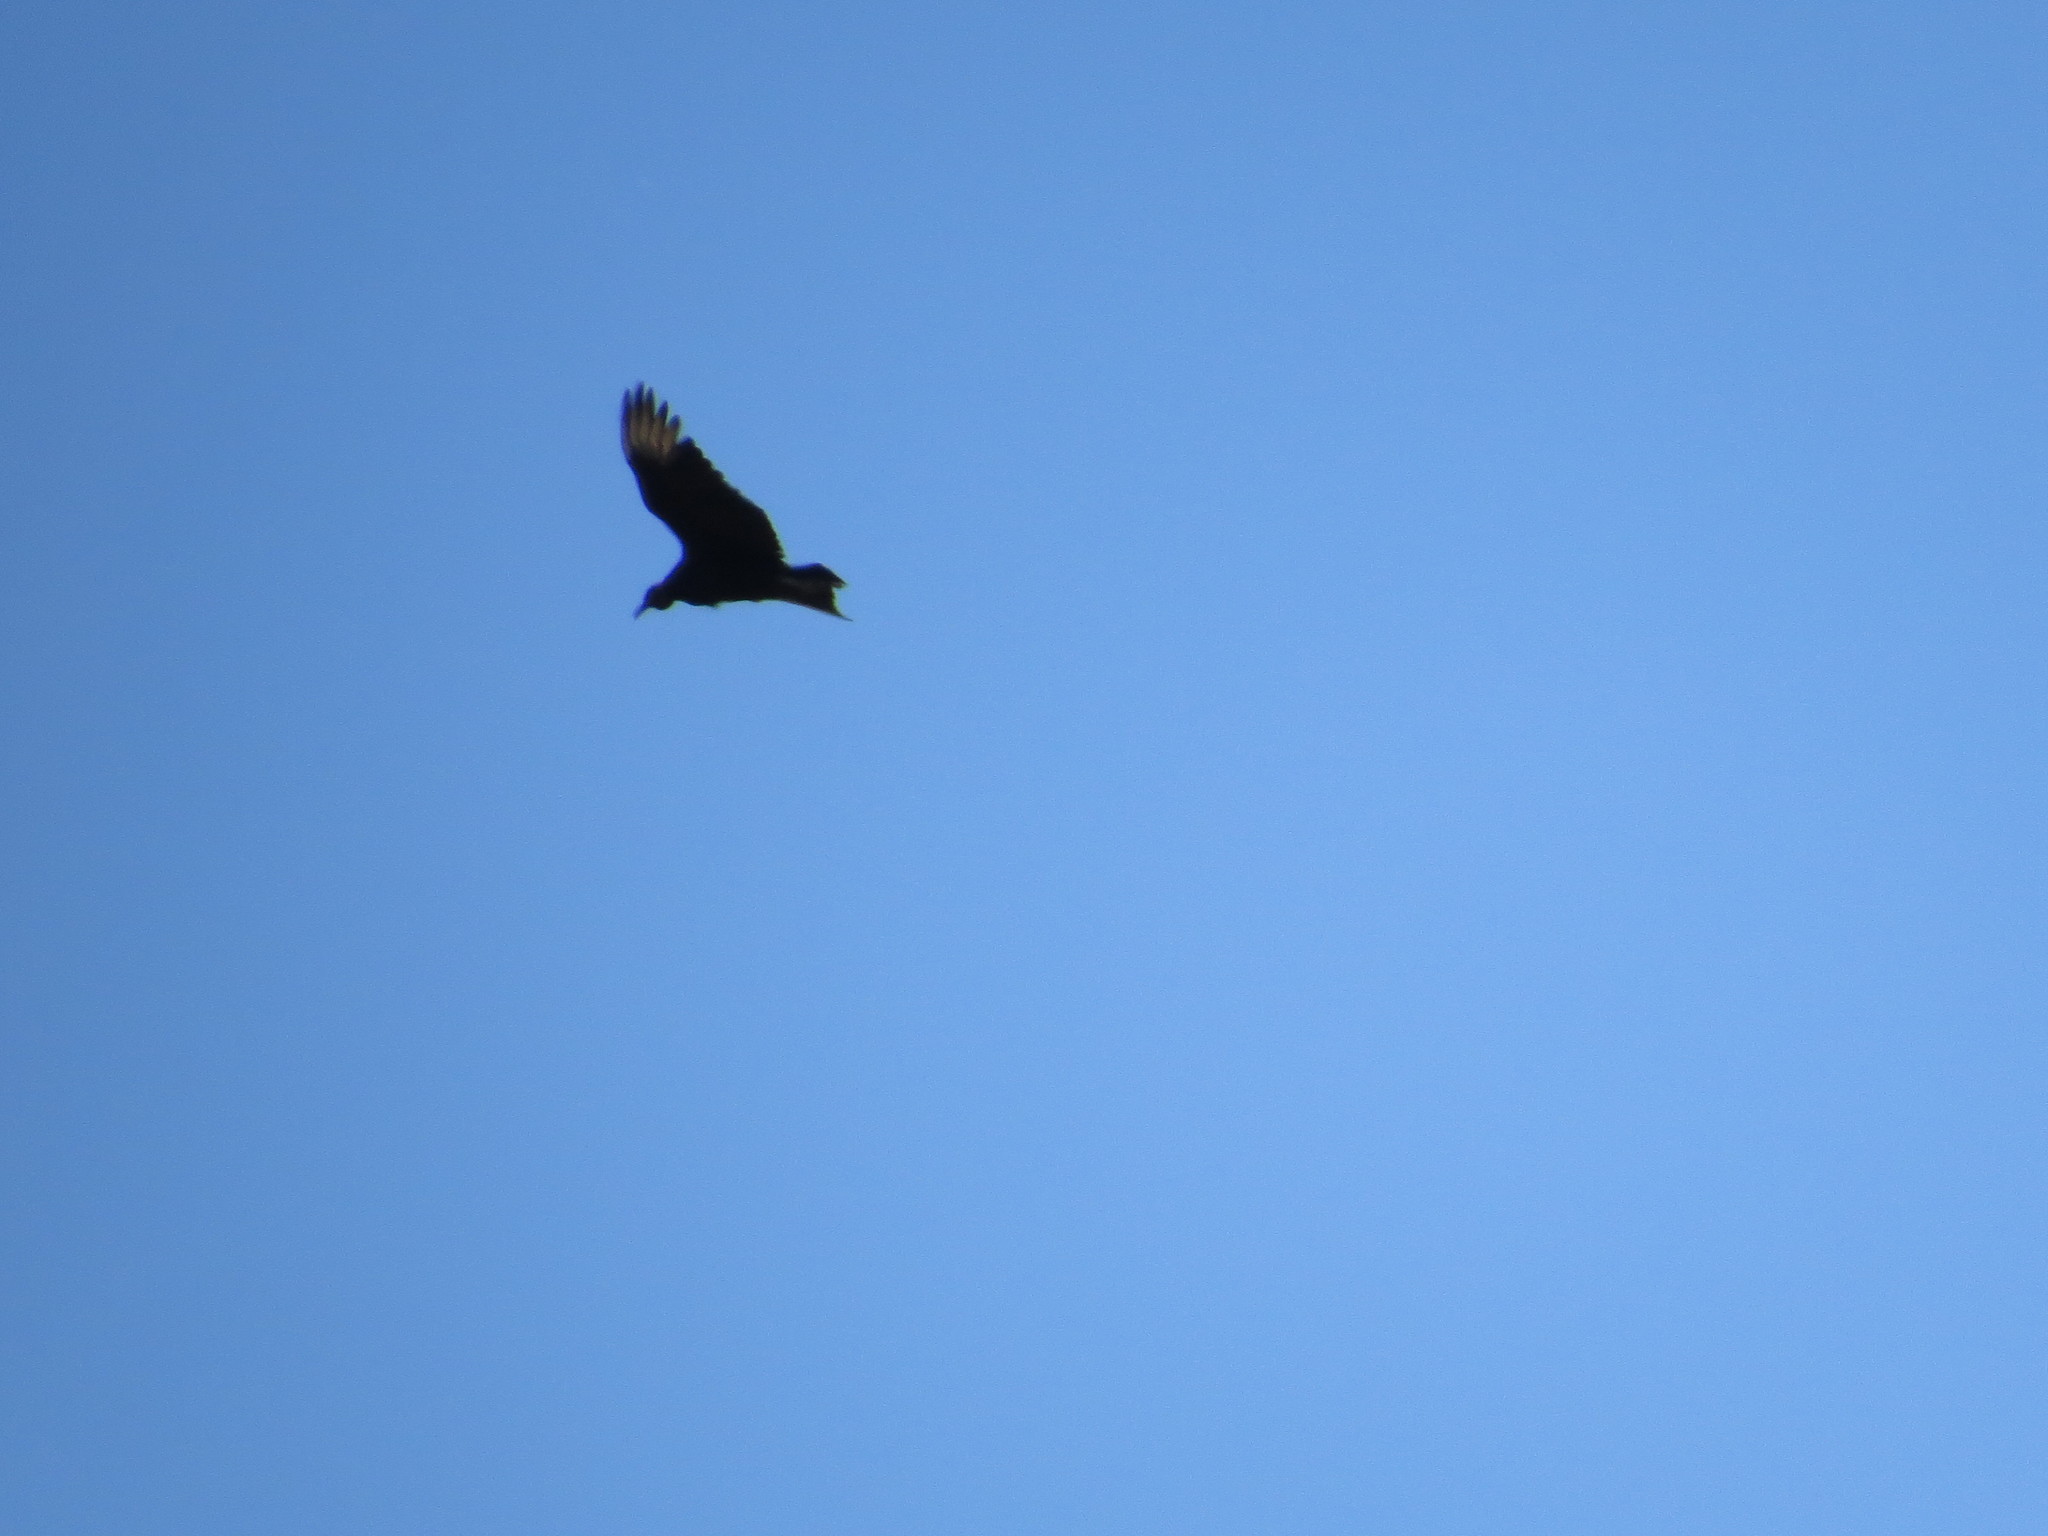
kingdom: Animalia
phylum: Chordata
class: Aves
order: Accipitriformes
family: Cathartidae
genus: Coragyps
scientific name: Coragyps atratus
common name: Black vulture
